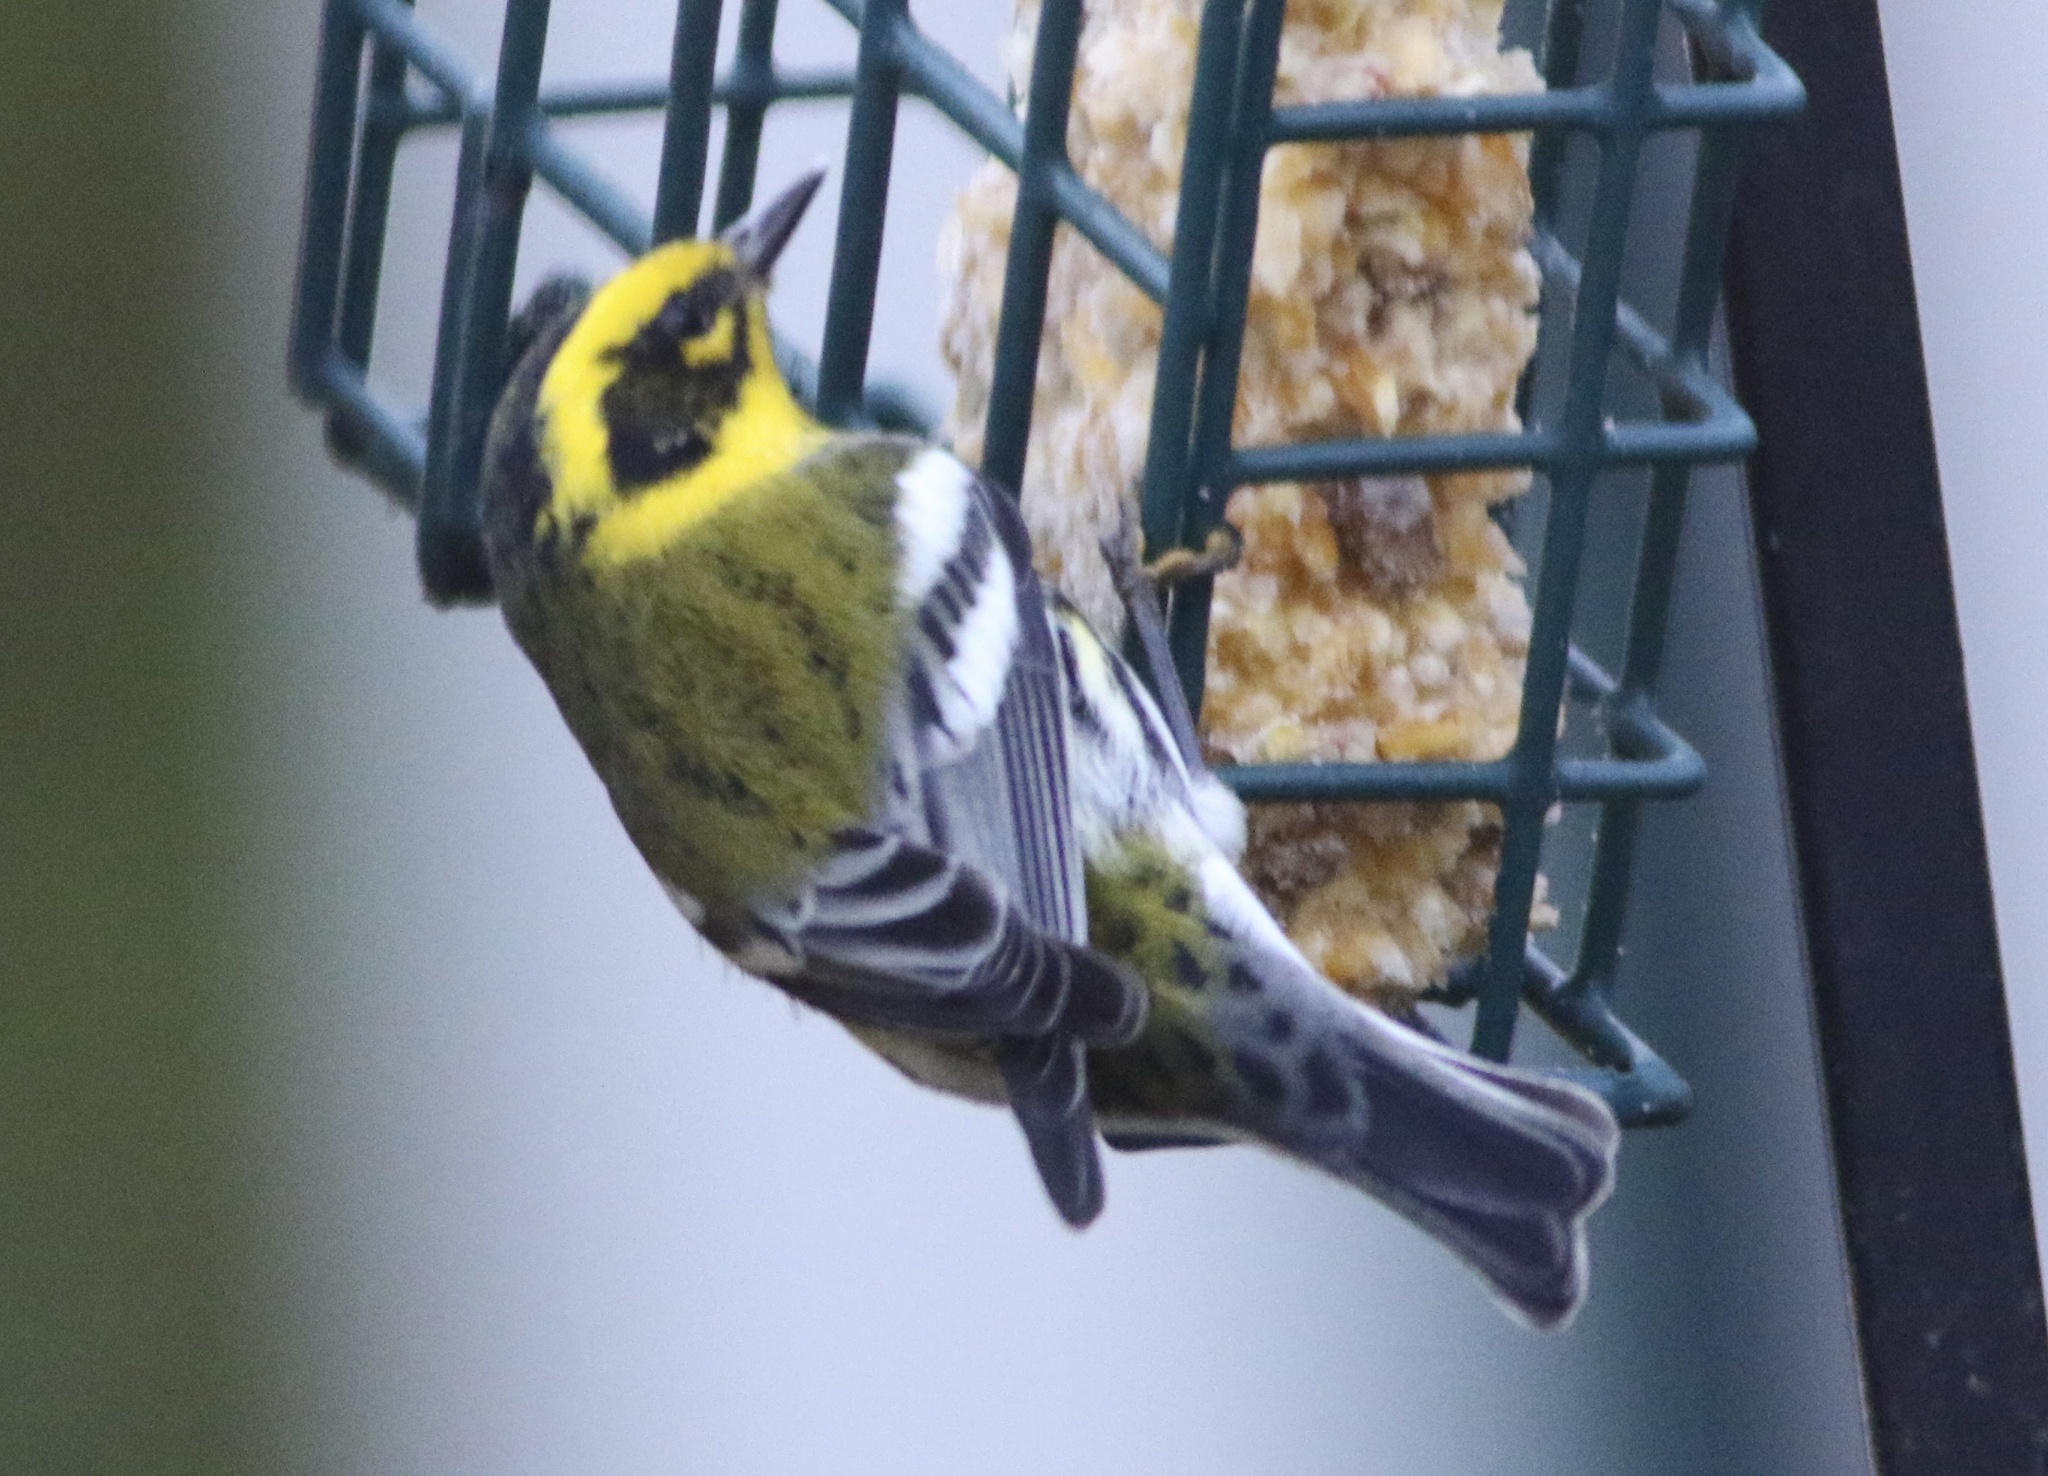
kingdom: Animalia
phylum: Chordata
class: Aves
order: Passeriformes
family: Parulidae
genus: Setophaga
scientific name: Setophaga townsendi
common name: Townsend's warbler
